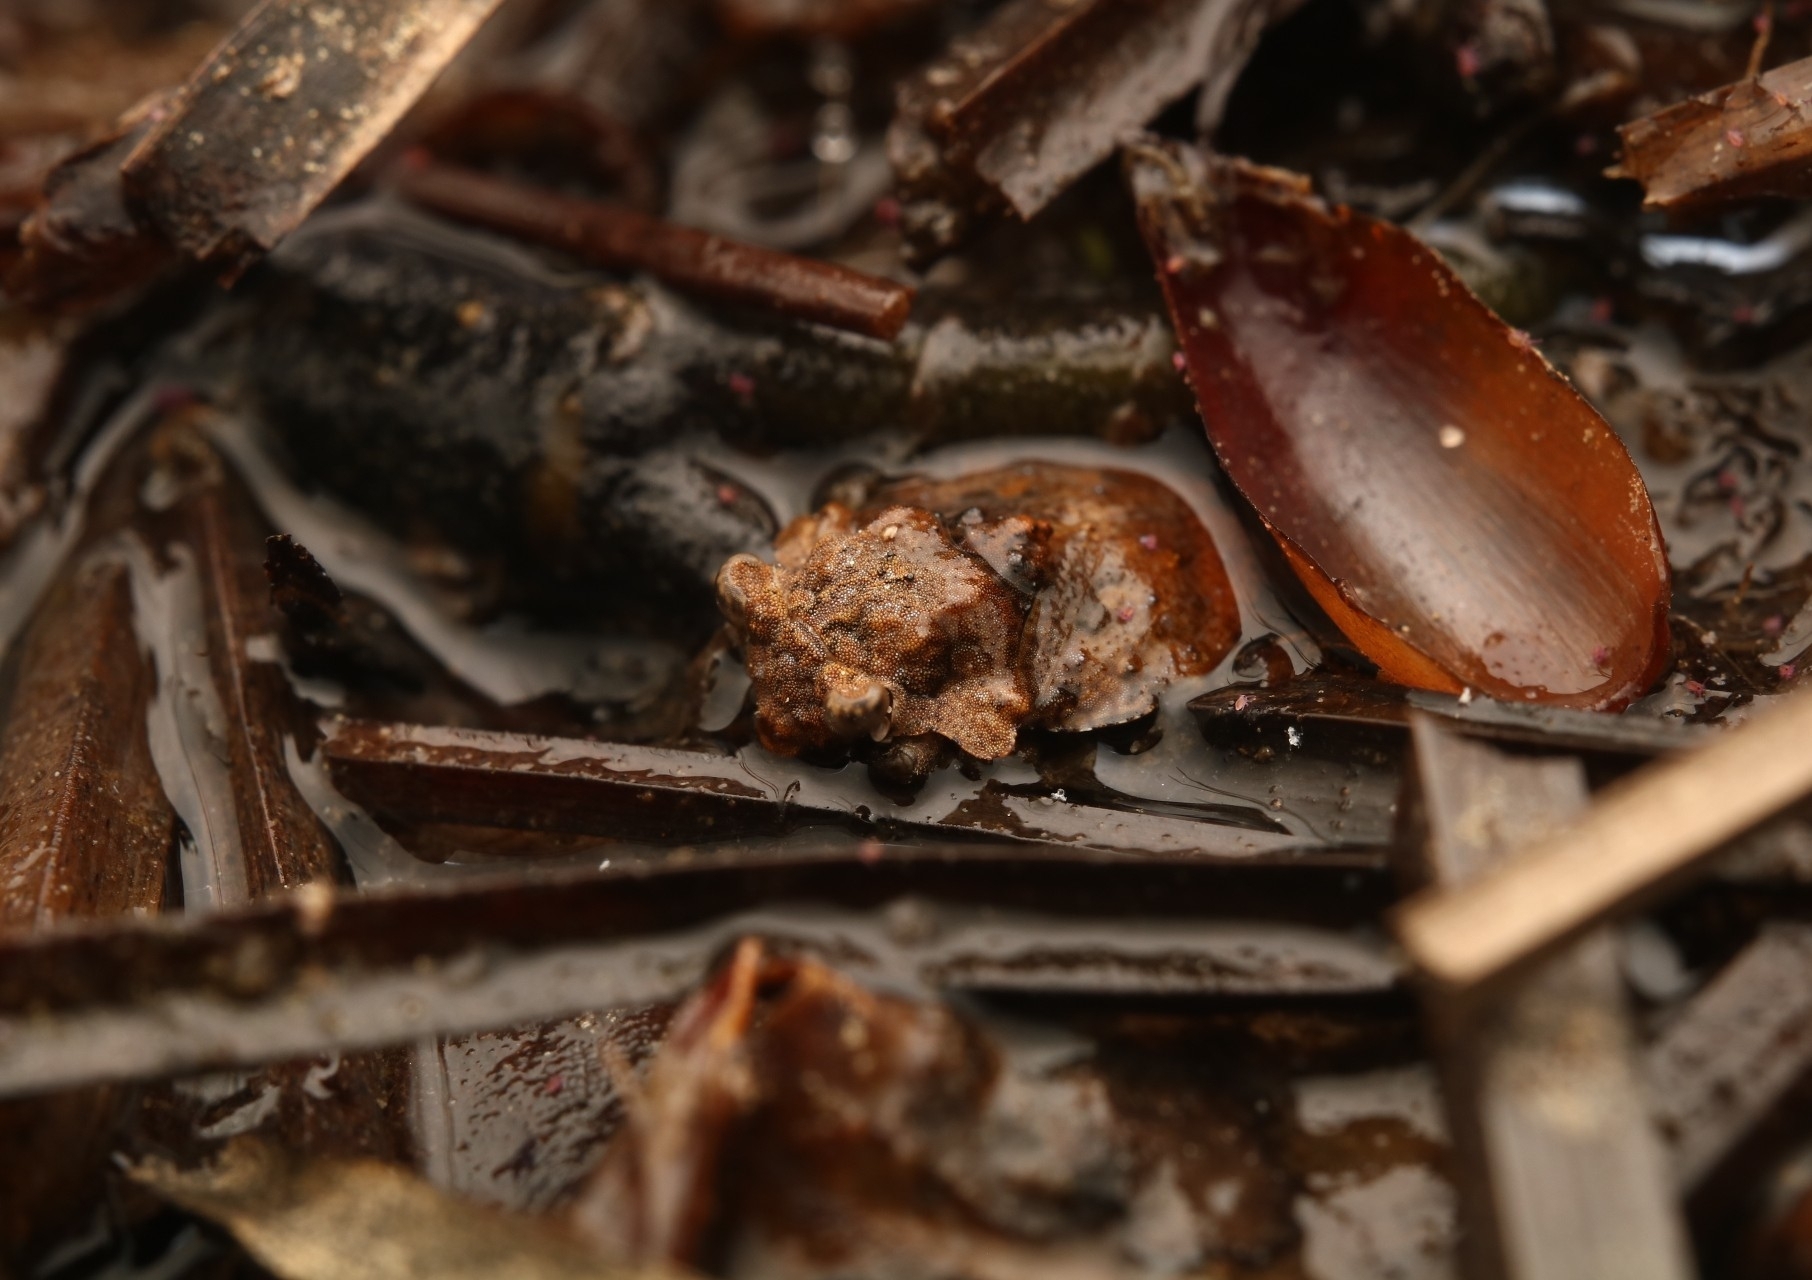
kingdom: Animalia
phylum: Arthropoda
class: Insecta
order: Hemiptera
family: Gelastocoridae
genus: Gelastocoris
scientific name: Gelastocoris oculatus
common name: Toad bug
